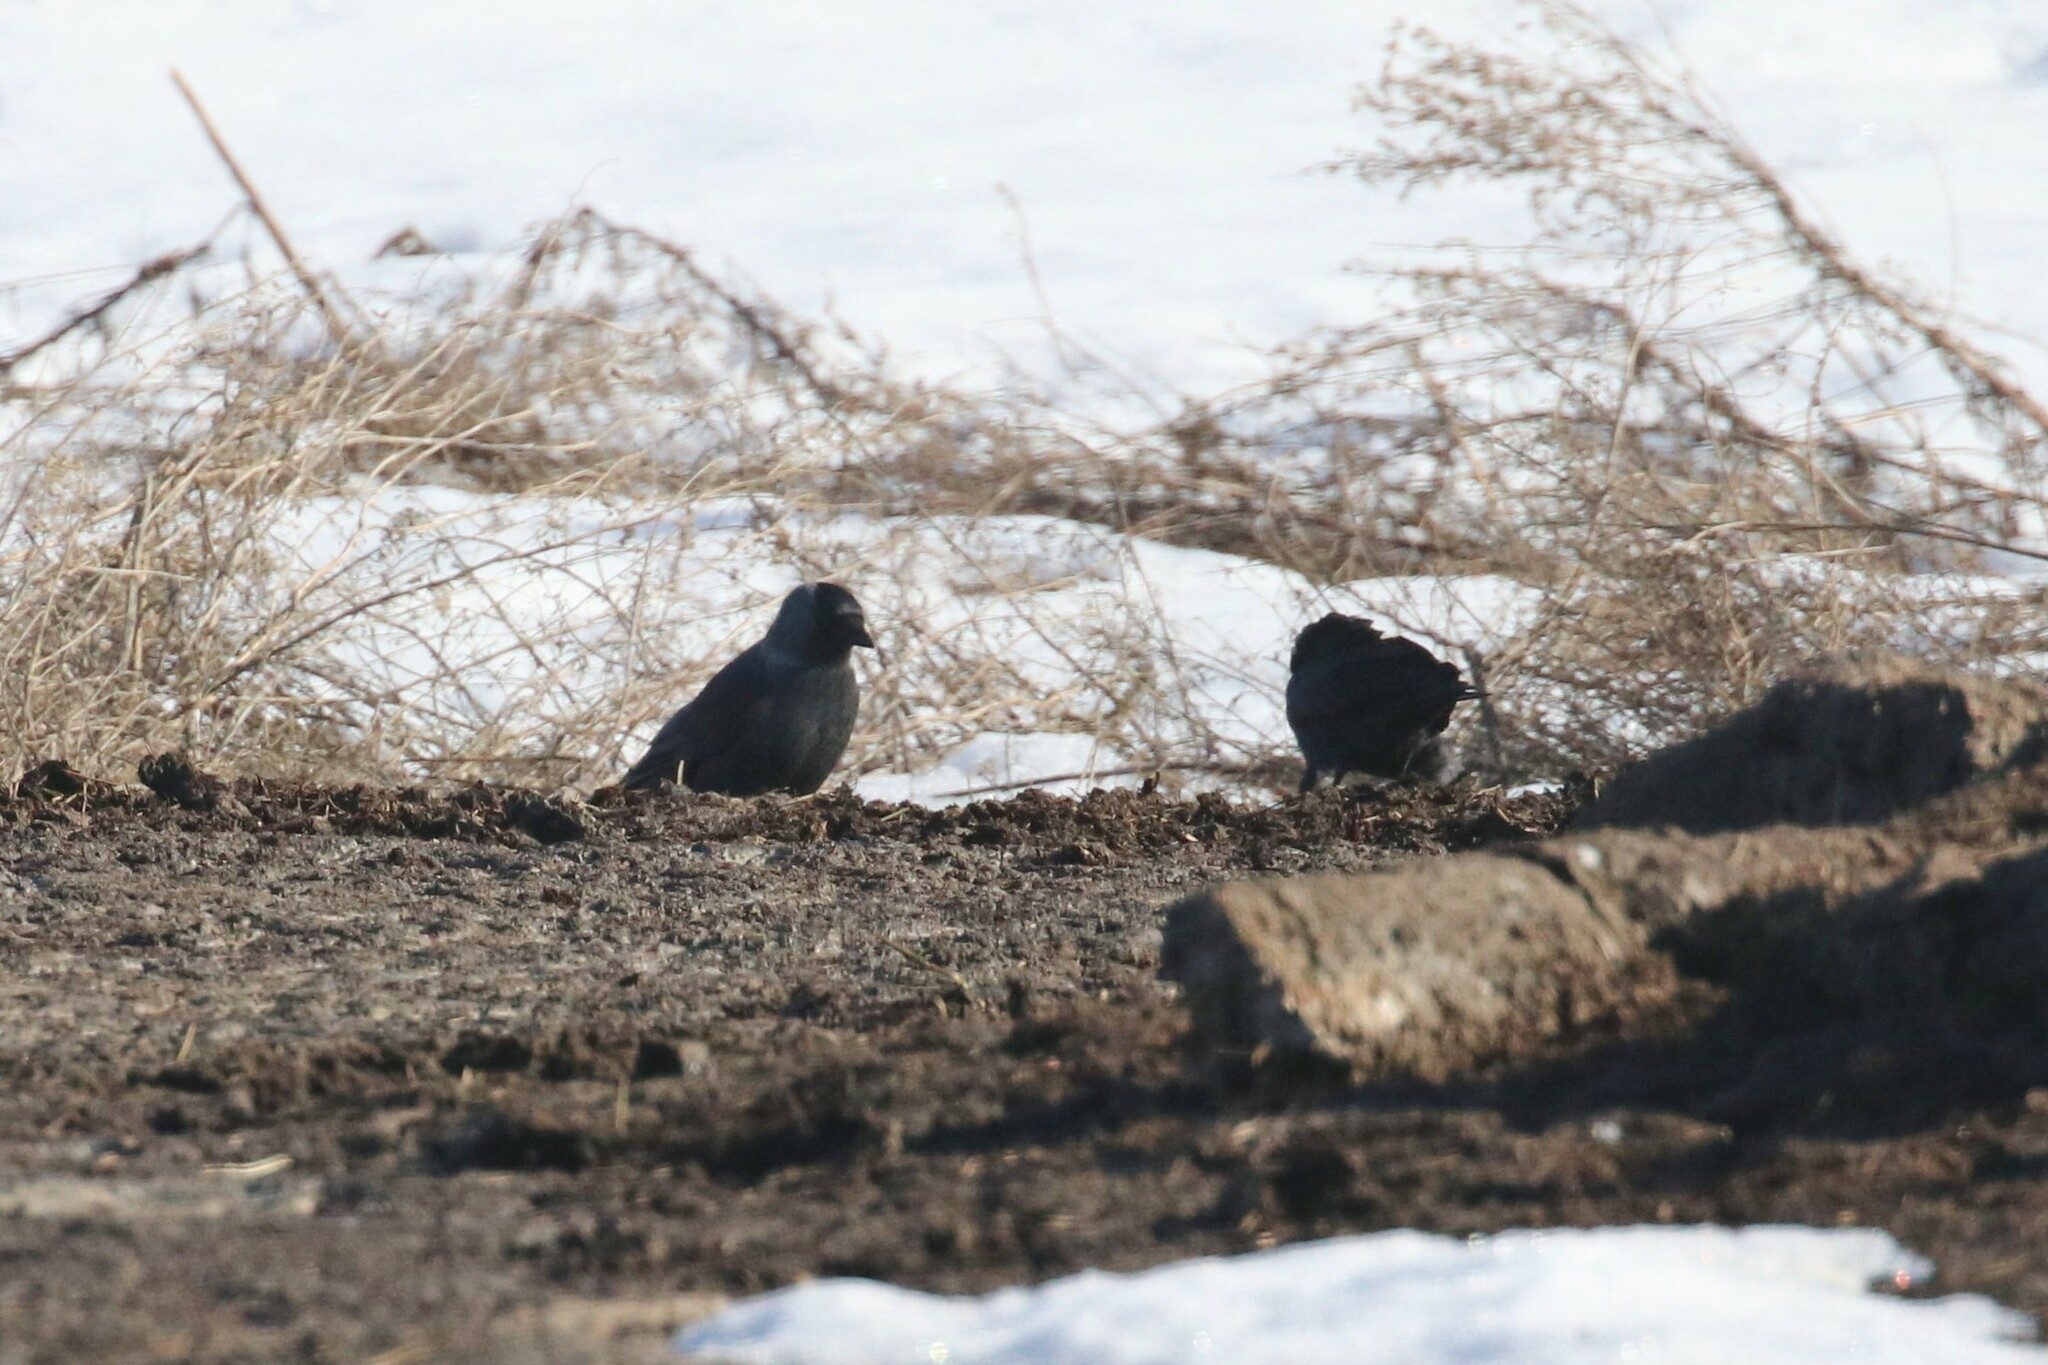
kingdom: Animalia
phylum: Chordata
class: Aves
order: Passeriformes
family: Corvidae
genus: Coloeus
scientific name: Coloeus monedula
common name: Western jackdaw
